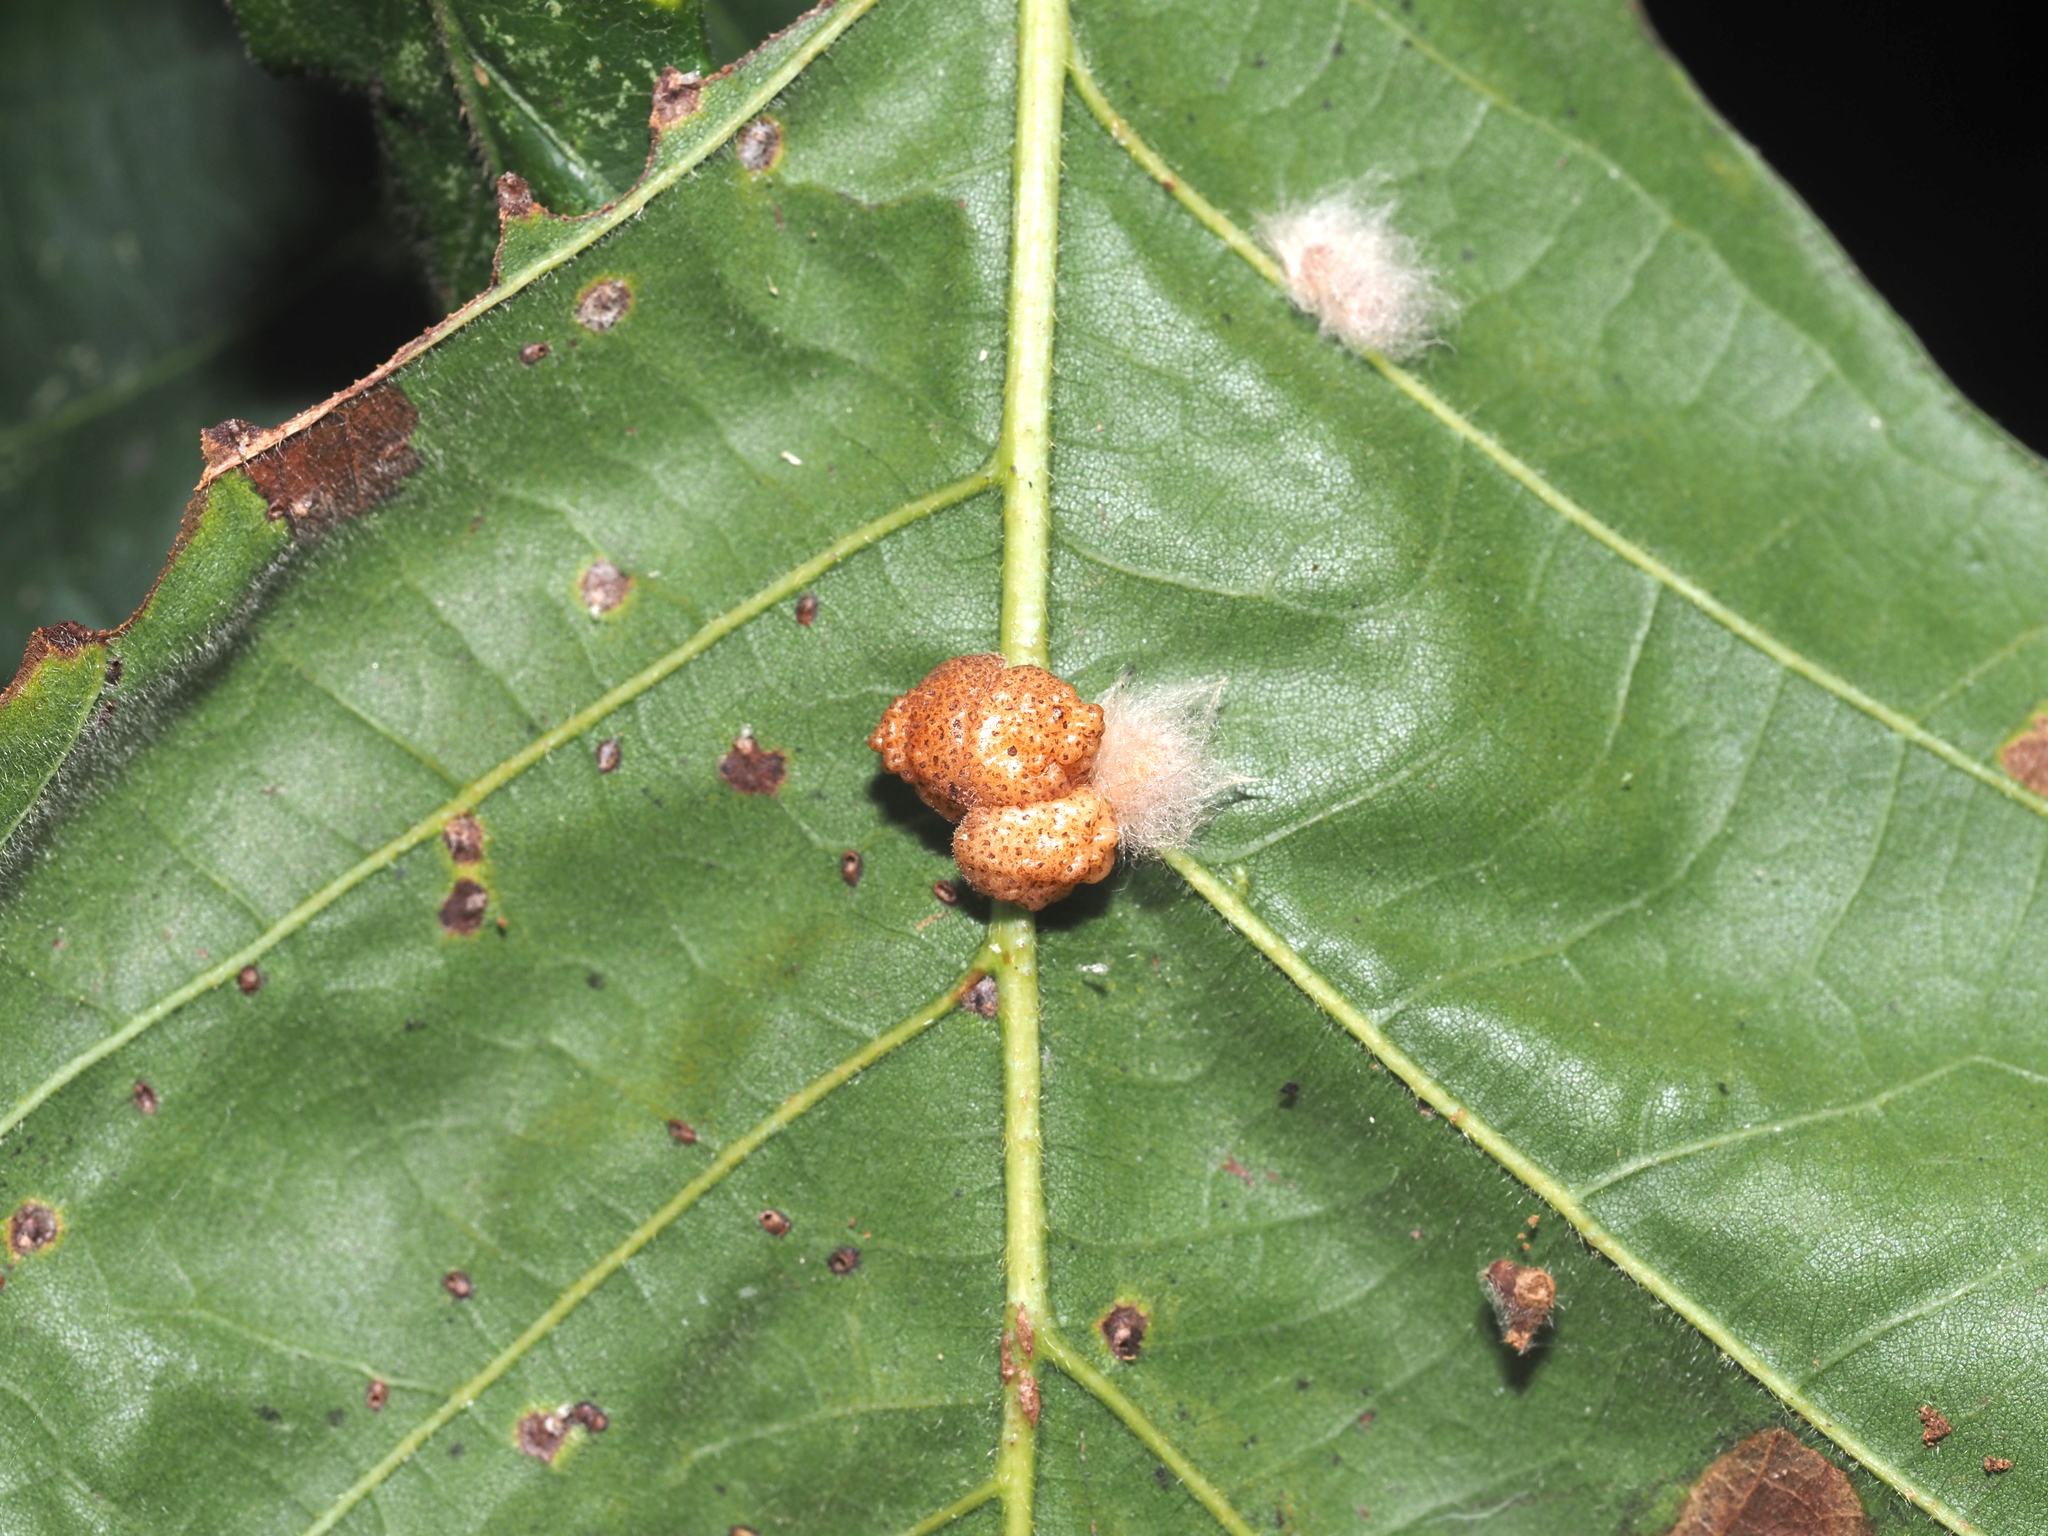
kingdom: Animalia
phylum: Arthropoda
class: Insecta
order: Hymenoptera
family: Cynipidae
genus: Andricus
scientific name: Andricus
